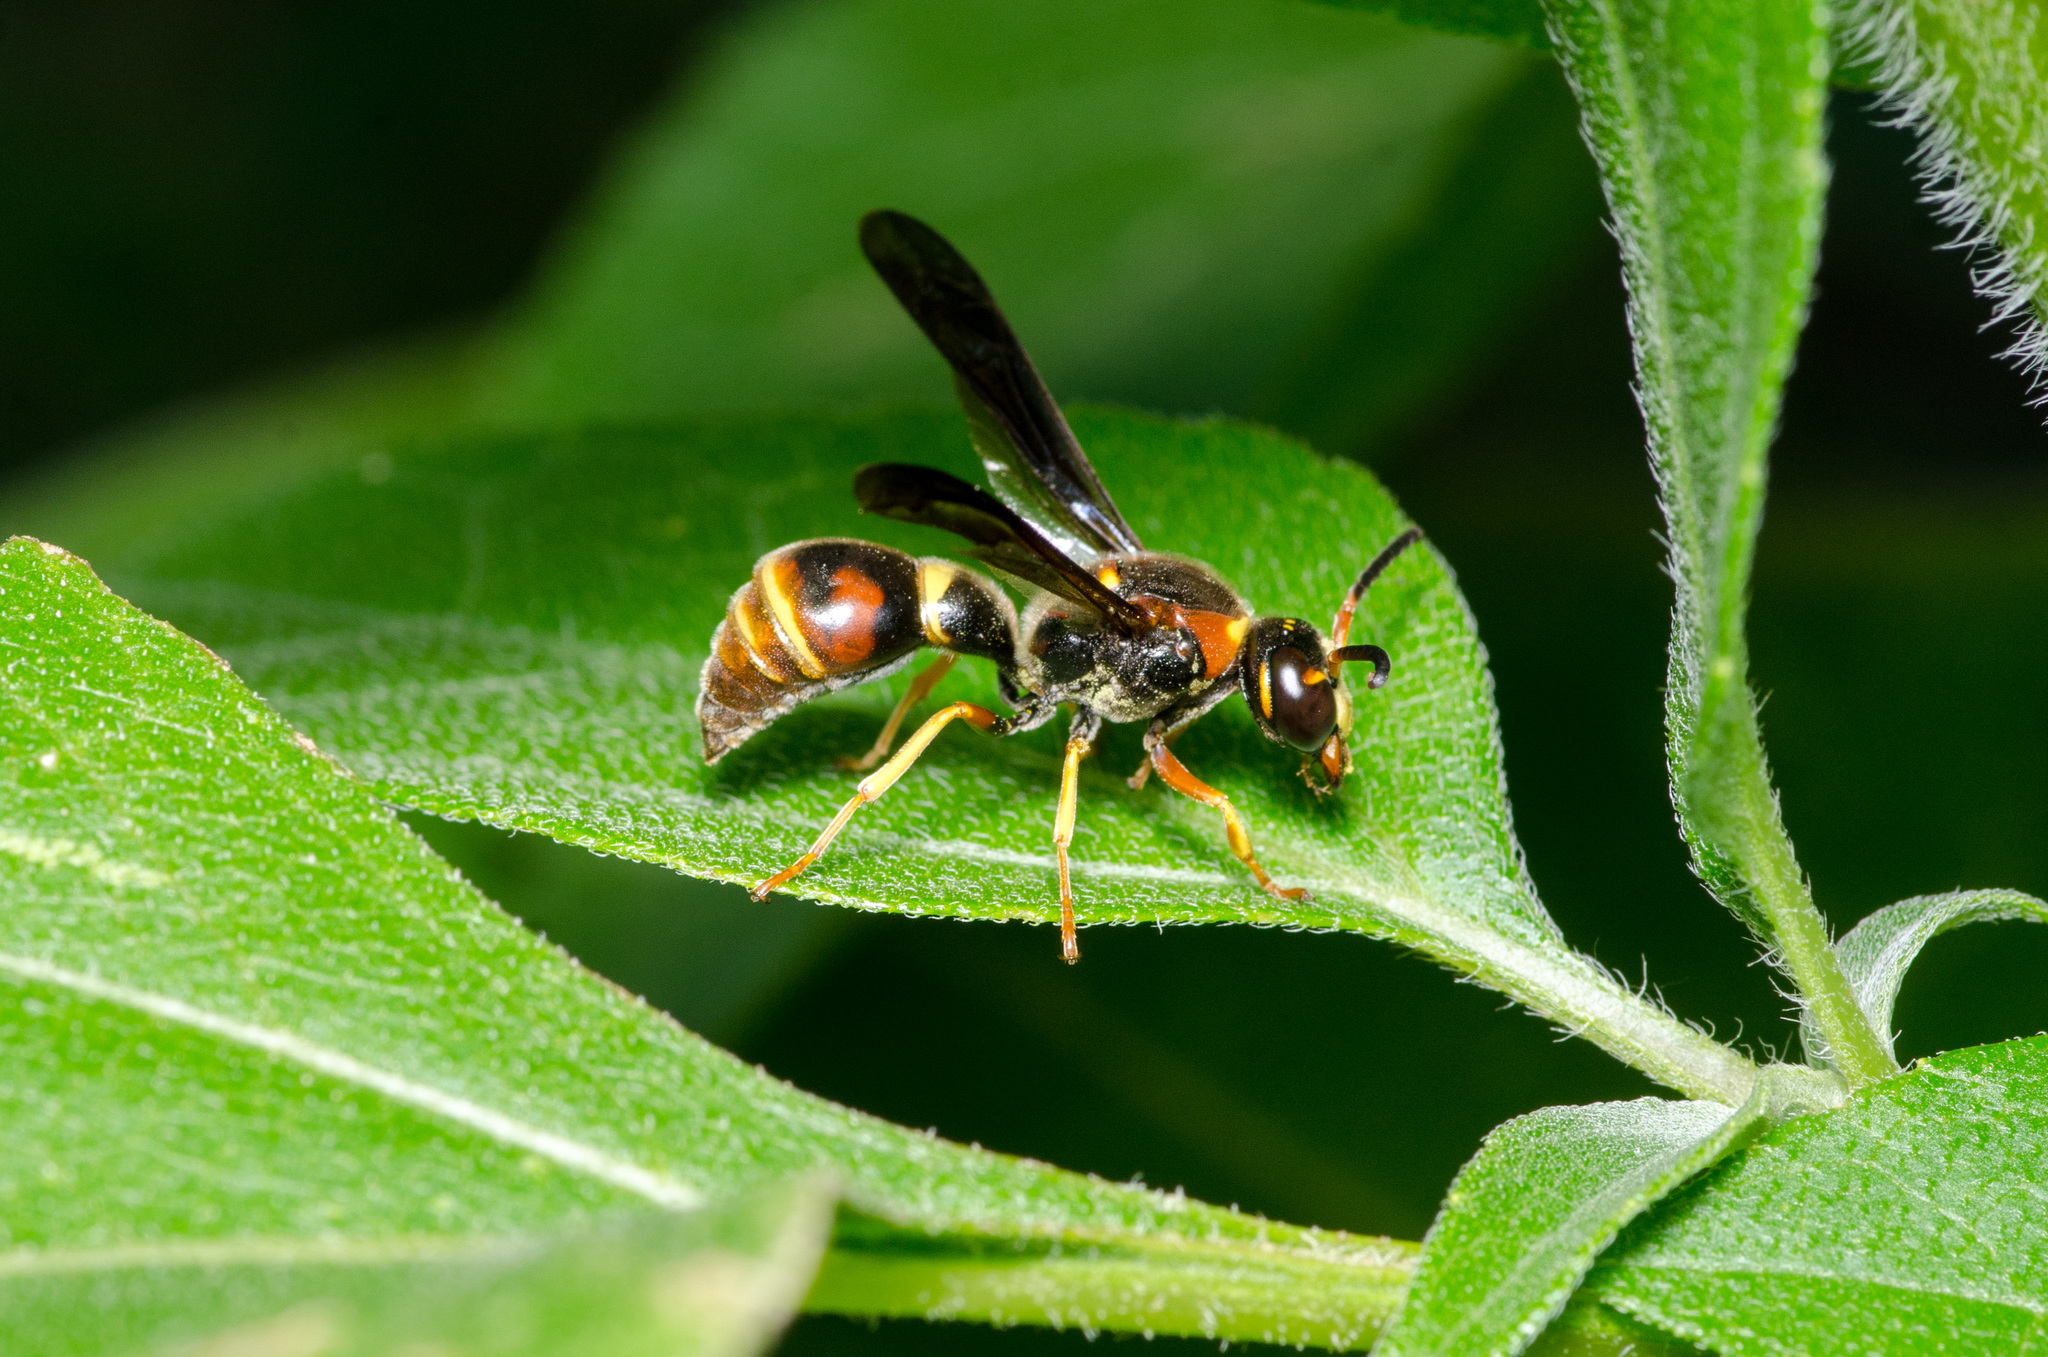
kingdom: Animalia
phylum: Arthropoda
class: Insecta
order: Hymenoptera
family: Eumenidae
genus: Parazumia
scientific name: Parazumia tolteca
